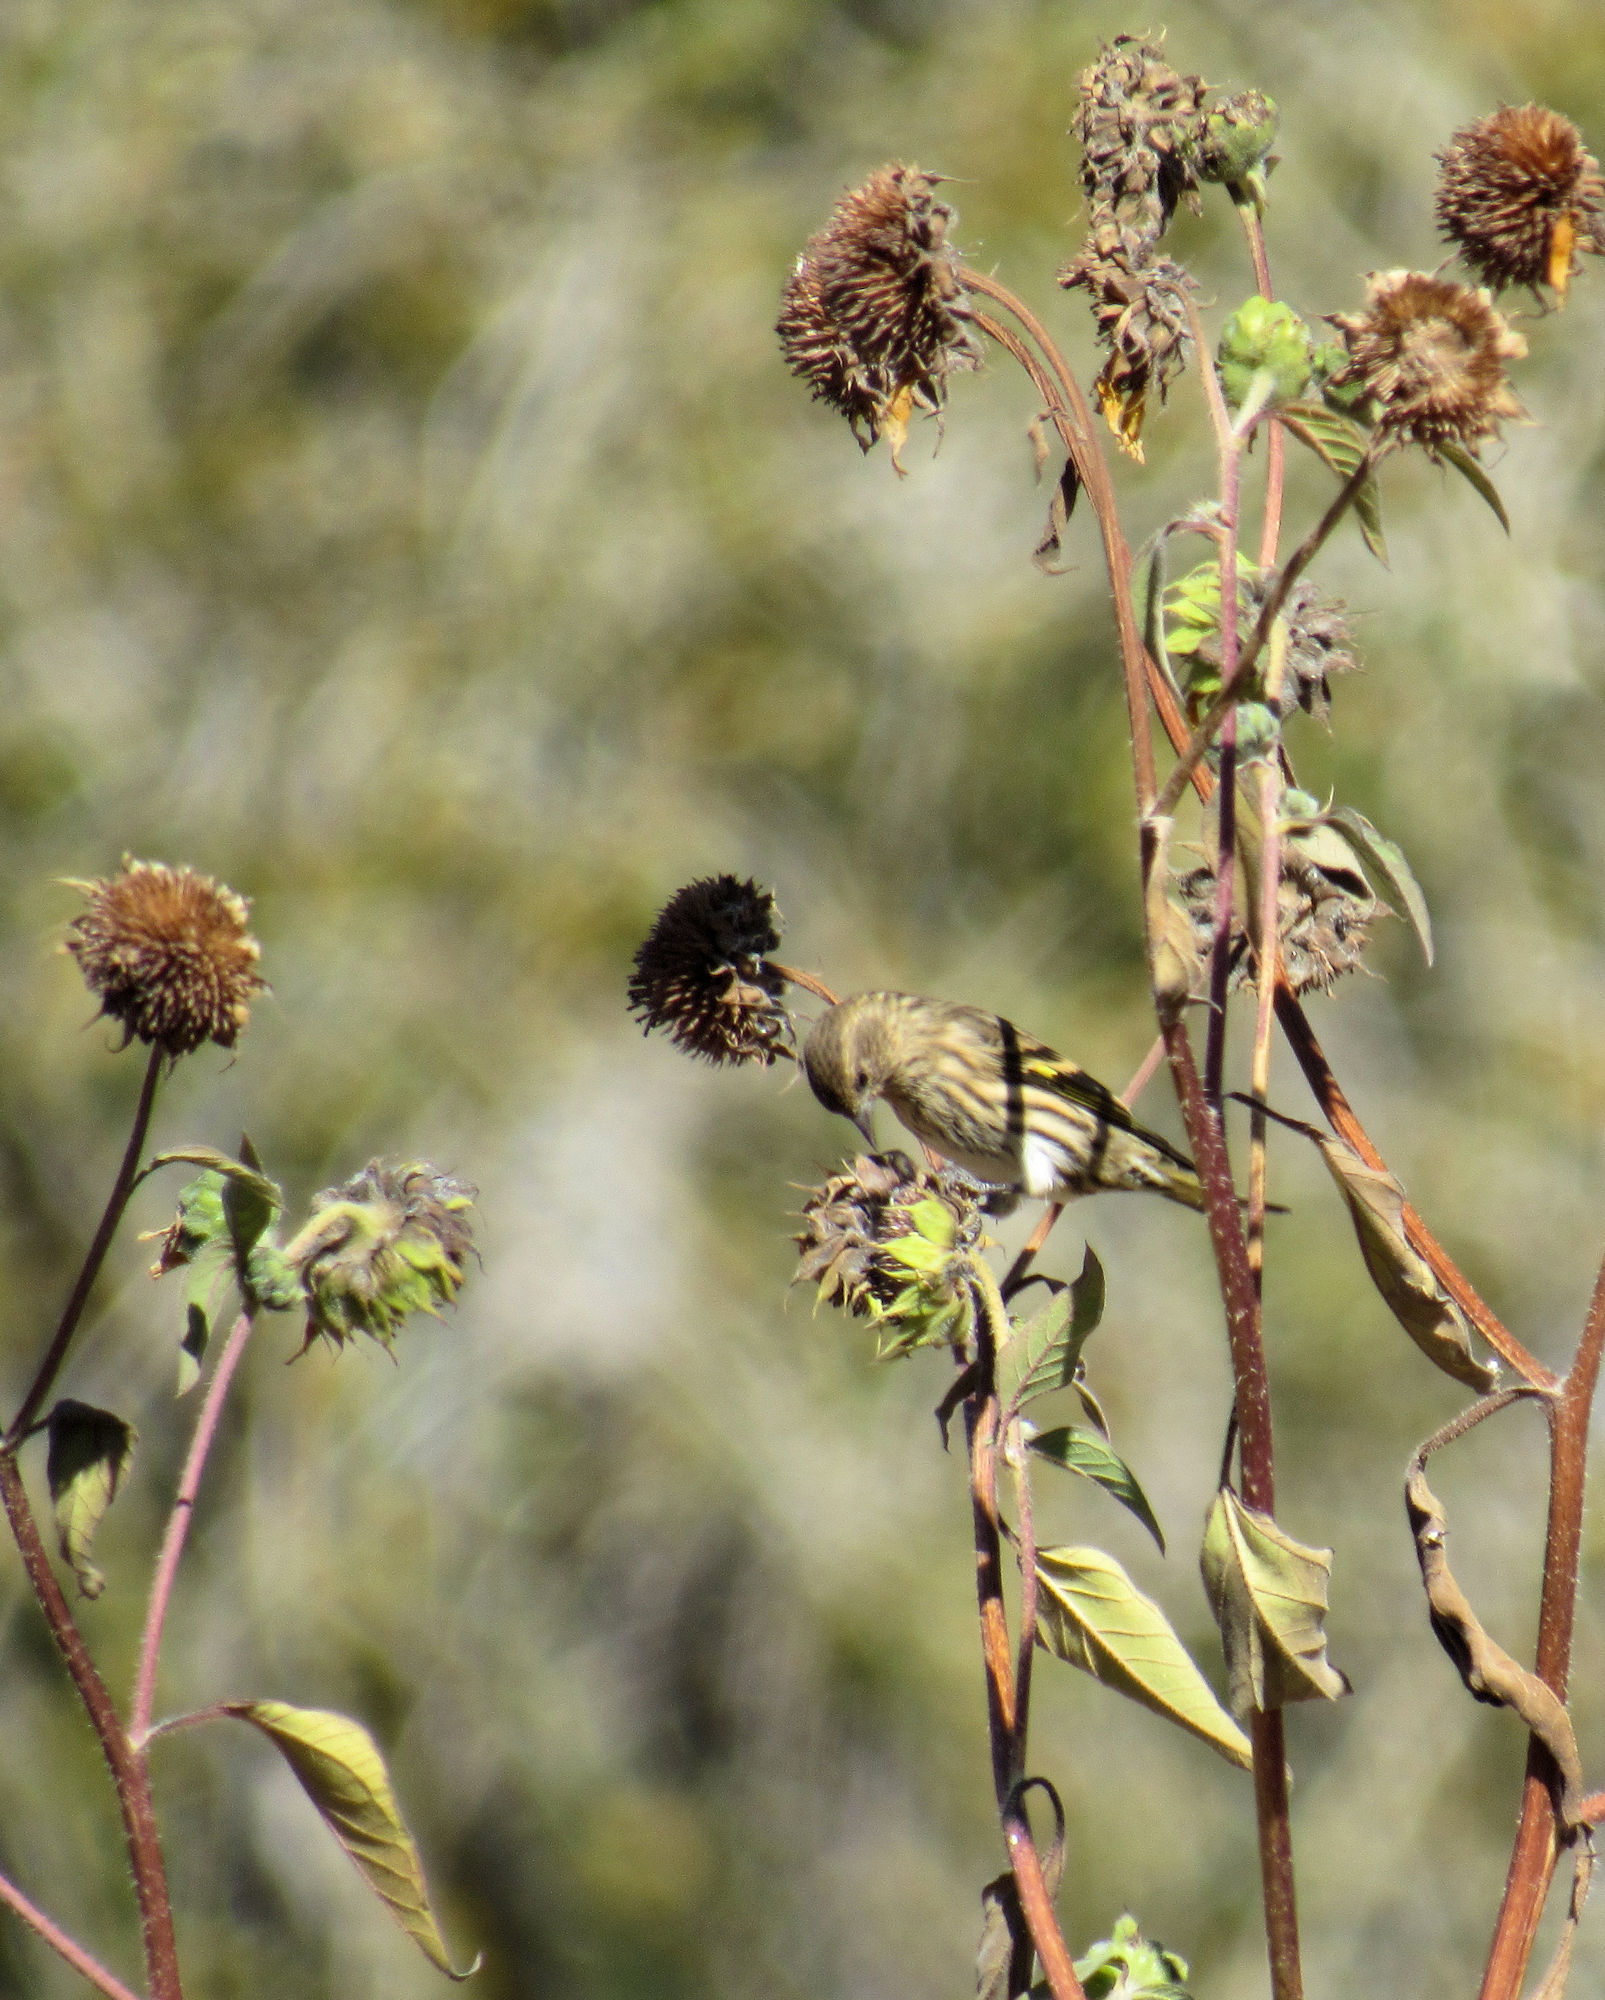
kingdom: Animalia
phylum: Chordata
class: Aves
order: Passeriformes
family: Fringillidae
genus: Spinus
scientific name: Spinus pinus
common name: Pine siskin
